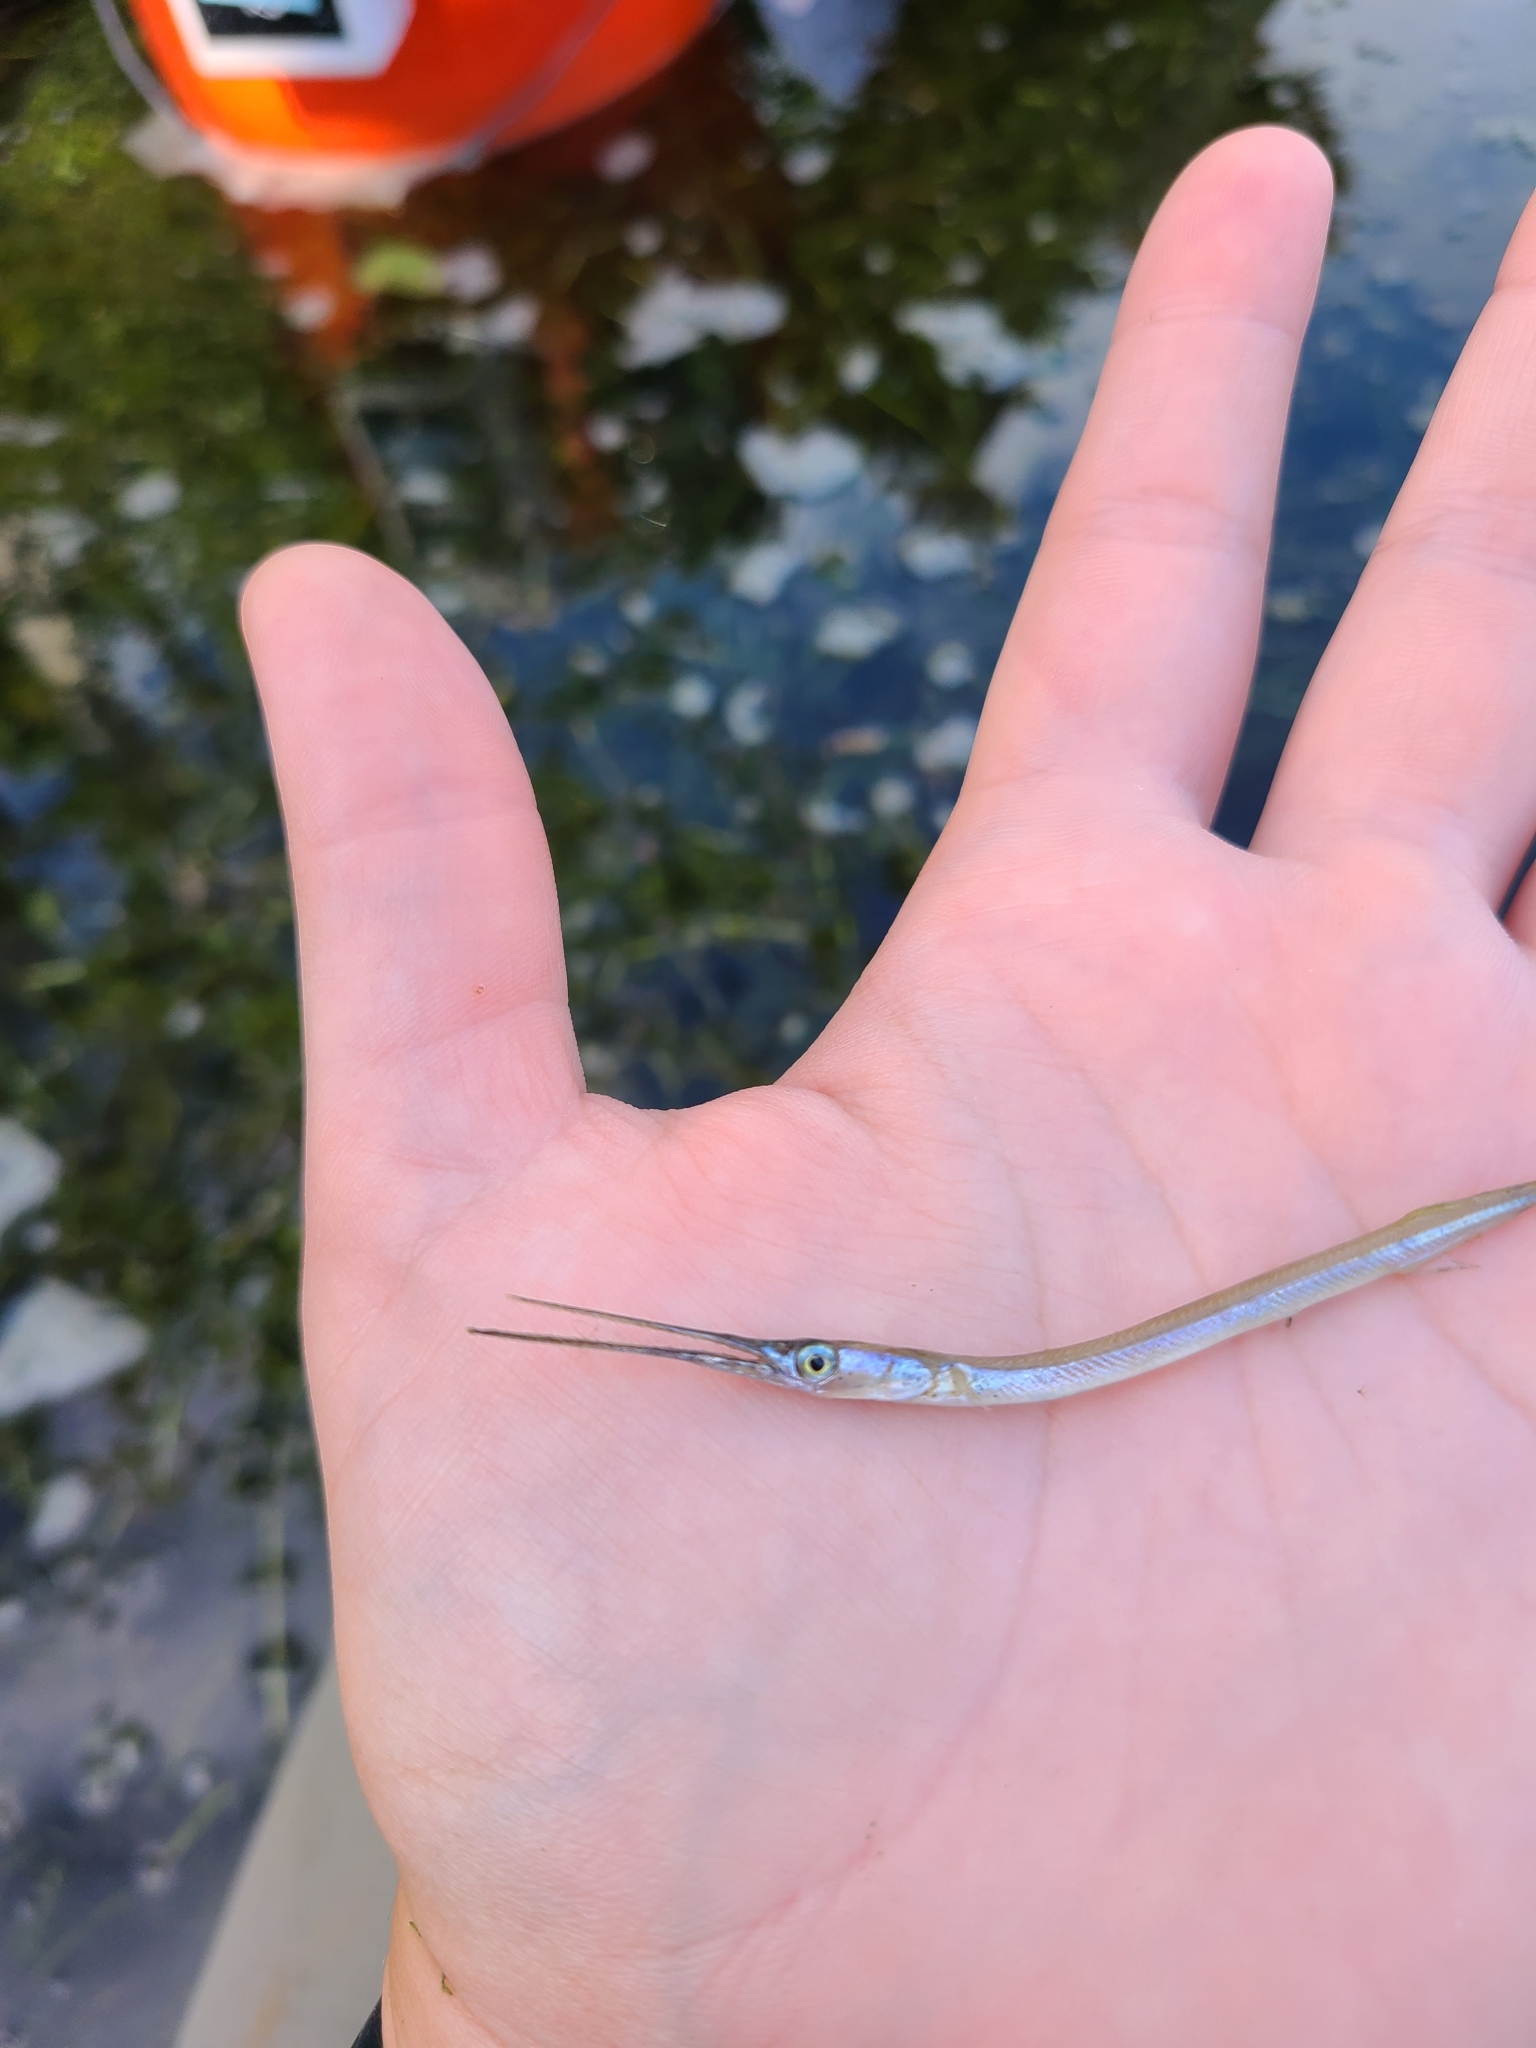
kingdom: Animalia
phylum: Chordata
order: Beloniformes
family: Belonidae
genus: Strongylura
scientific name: Strongylura marina
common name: Atlantic needlefish
